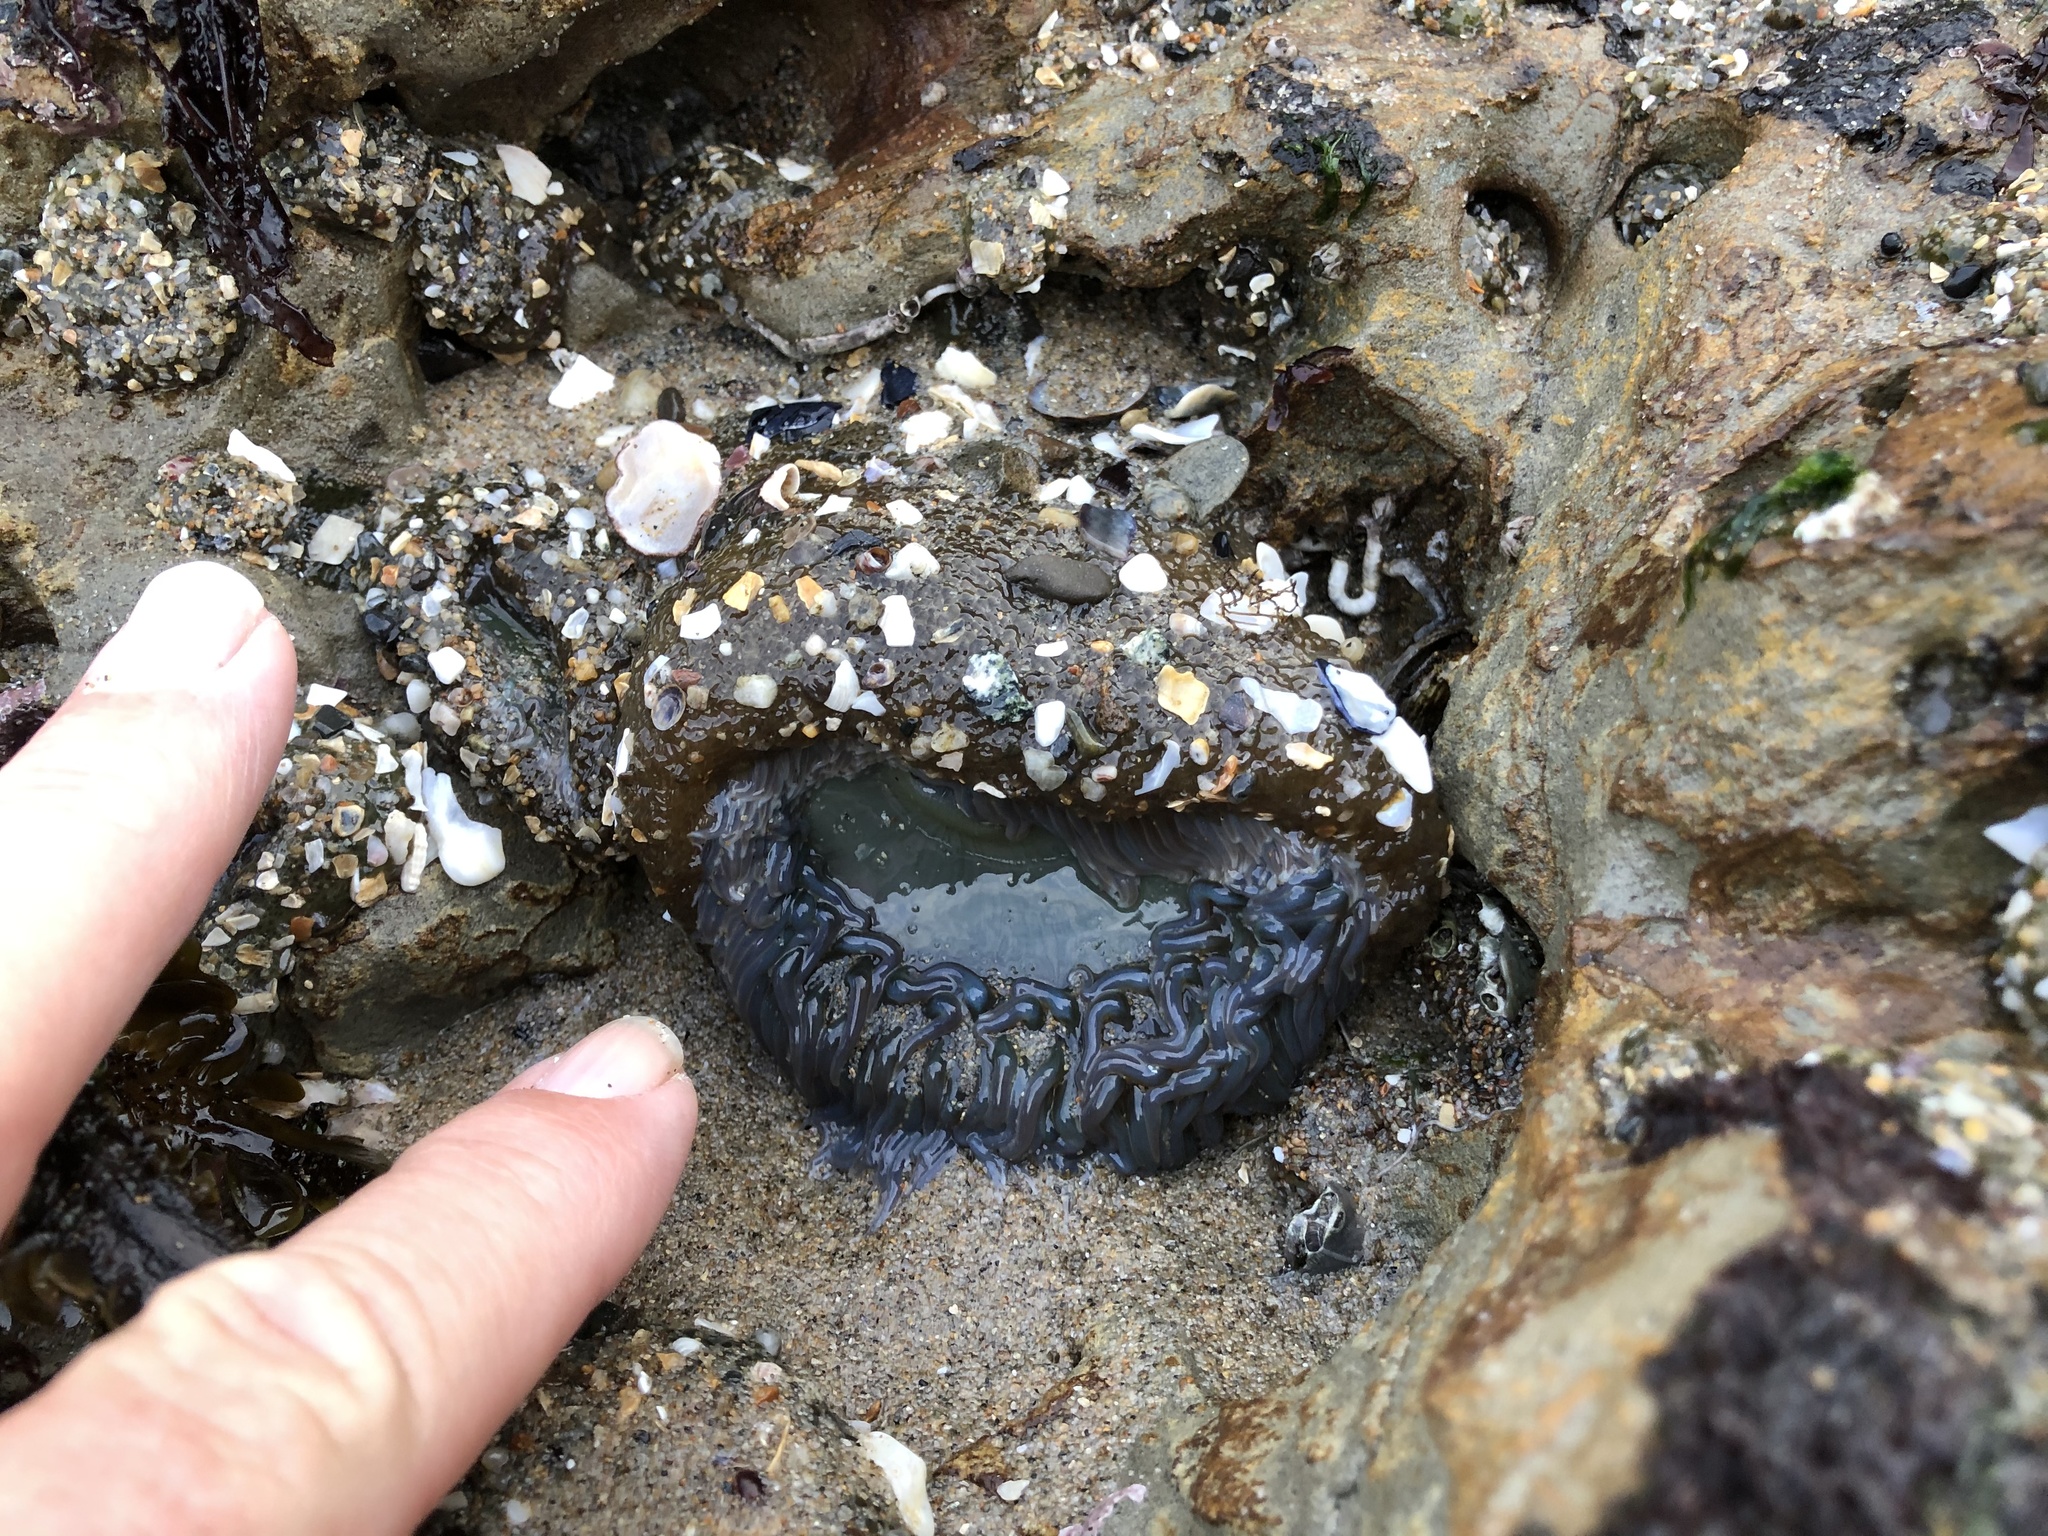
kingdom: Animalia
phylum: Cnidaria
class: Anthozoa
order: Actiniaria
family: Actiniidae
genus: Anthopleura
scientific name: Anthopleura xanthogrammica
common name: Giant green anemone
